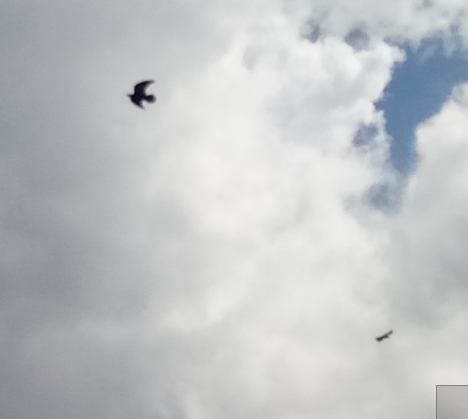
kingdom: Animalia
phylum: Chordata
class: Aves
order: Passeriformes
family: Corvidae
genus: Corvus
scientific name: Corvus corax
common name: Common raven
